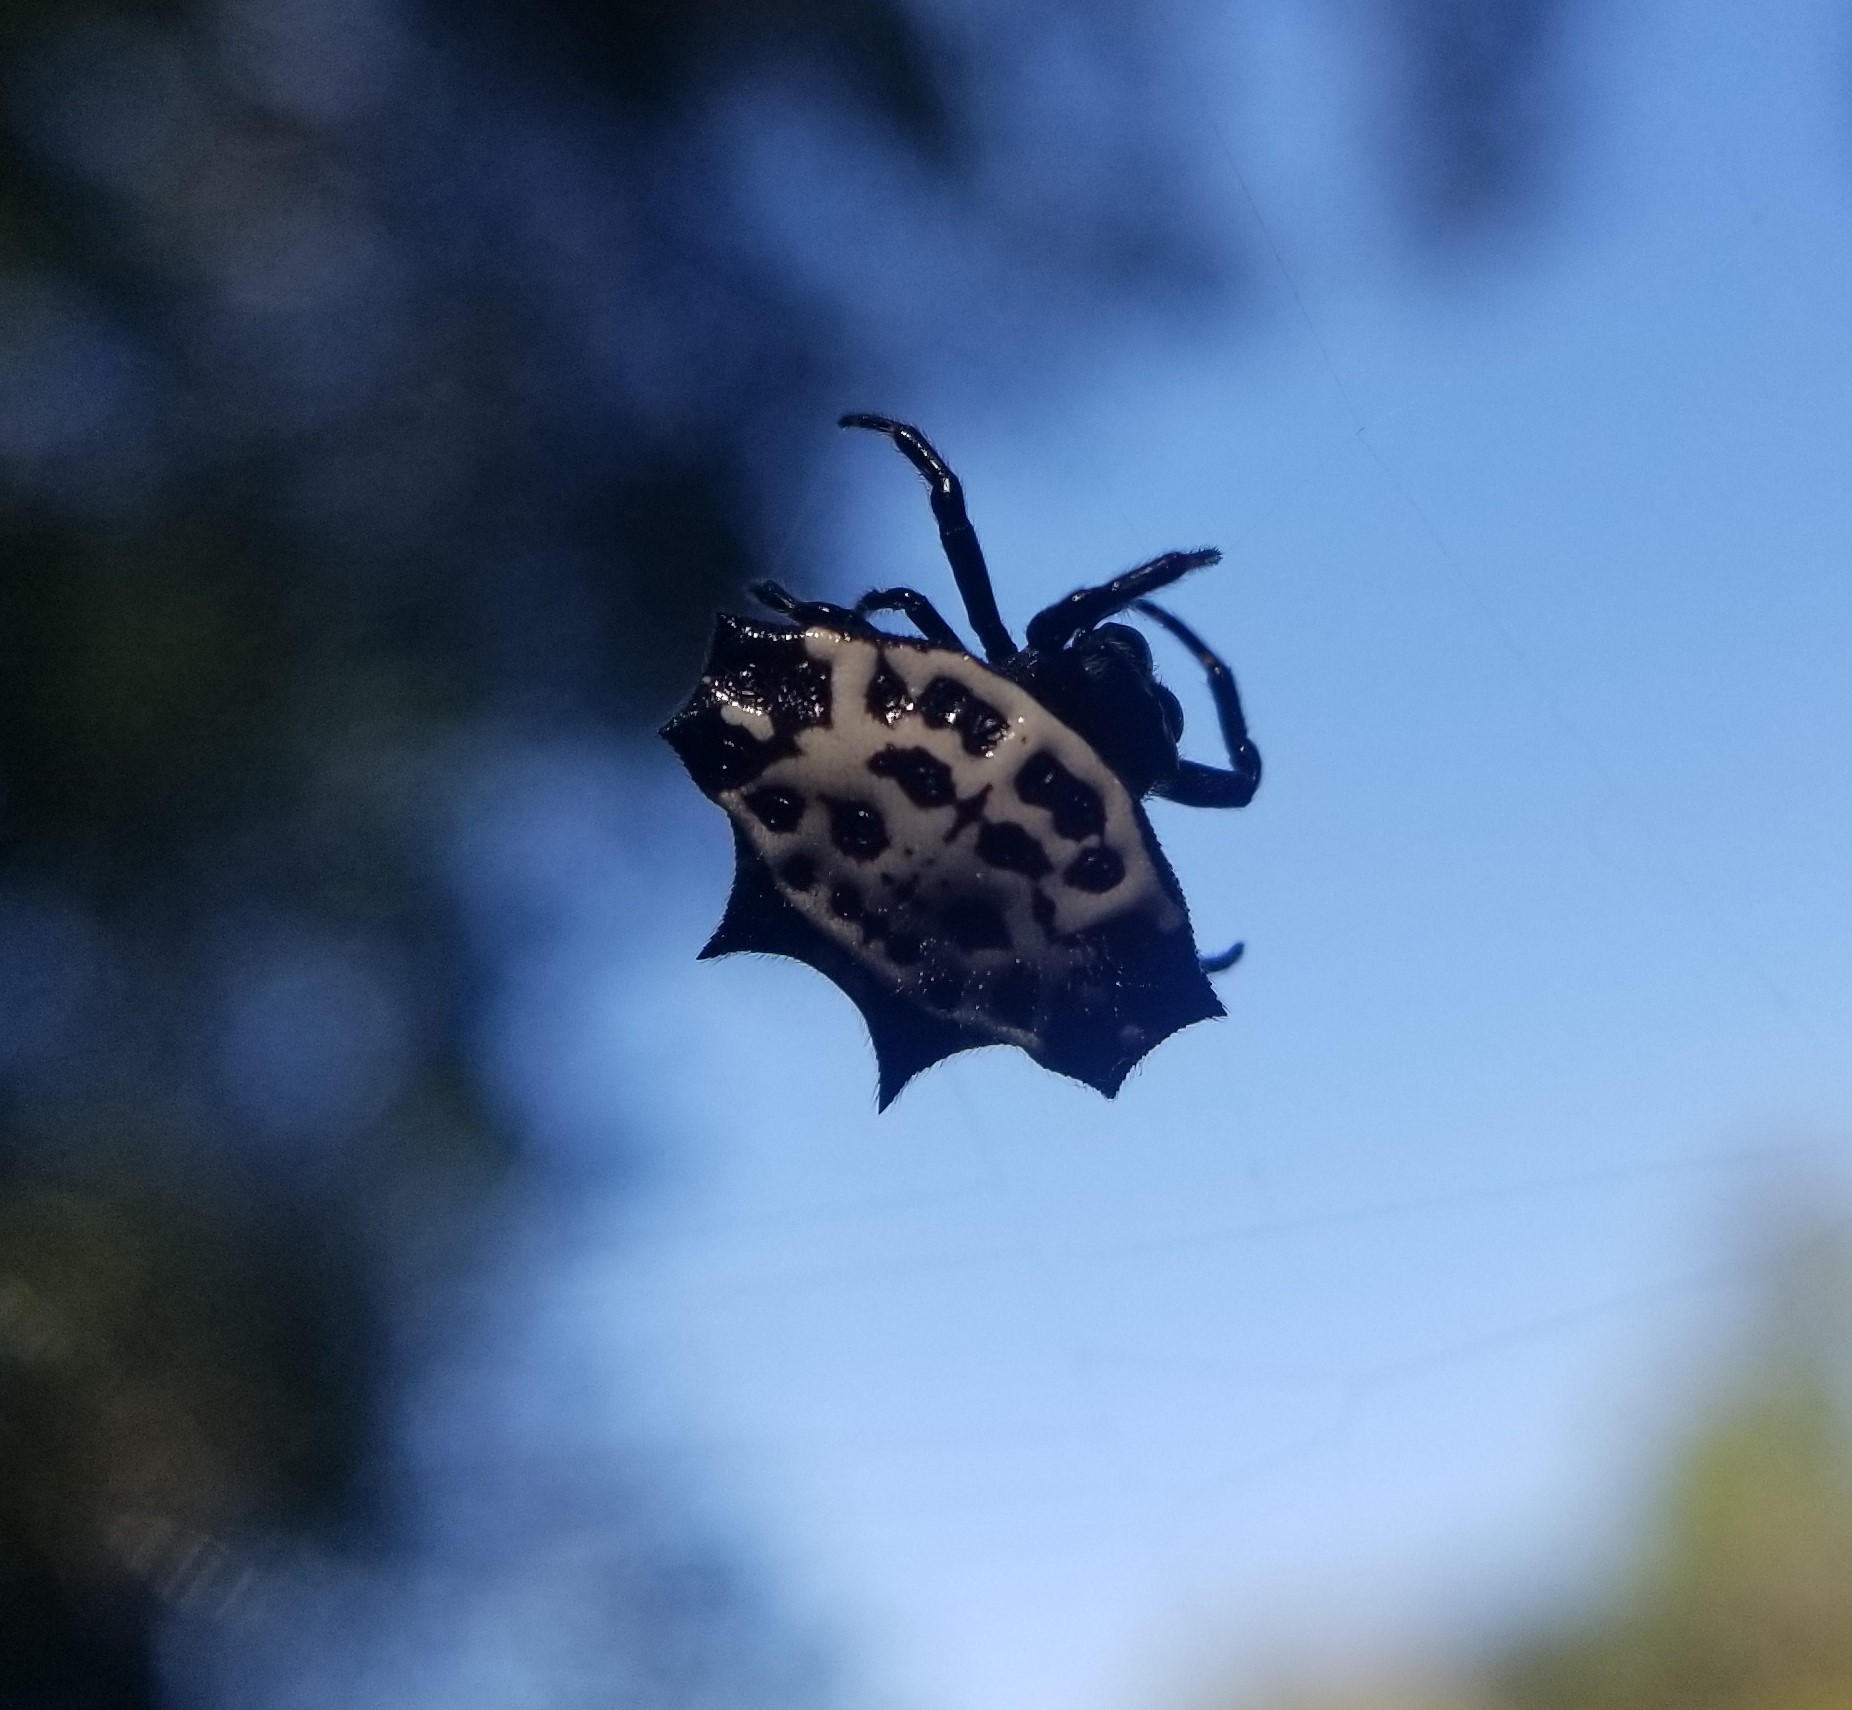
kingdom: Animalia
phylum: Arthropoda
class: Arachnida
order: Araneae
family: Araneidae
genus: Gasteracantha
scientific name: Gasteracantha cancriformis
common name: Orb weavers
